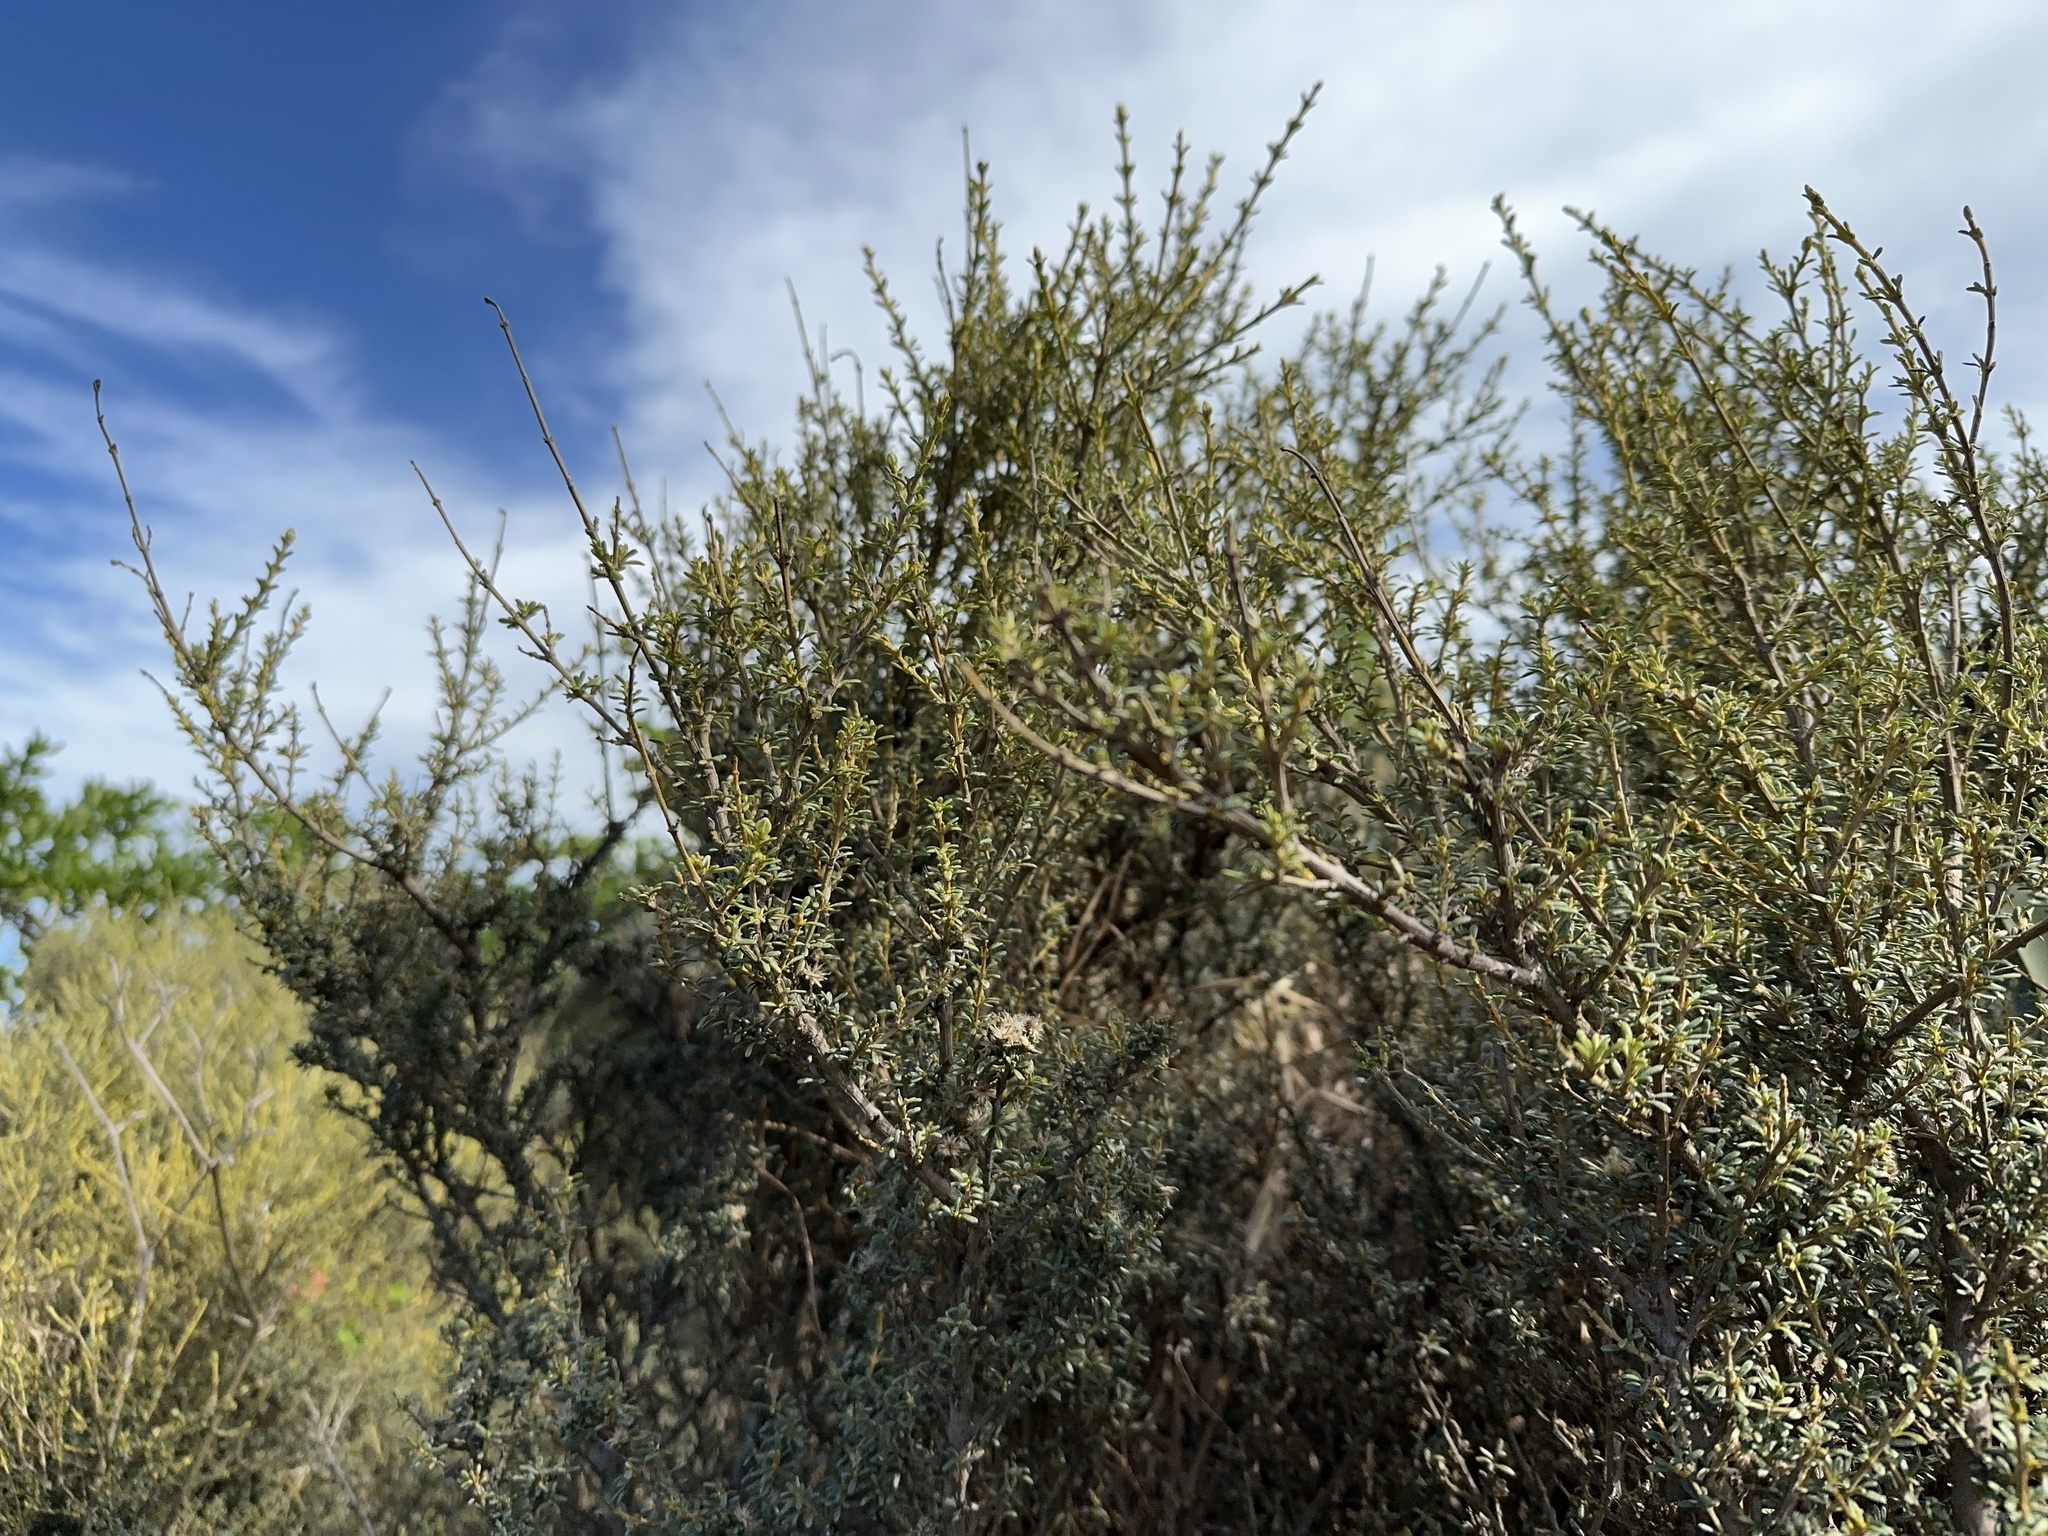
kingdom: Plantae
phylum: Tracheophyta
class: Magnoliopsida
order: Asterales
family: Asteraceae
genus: Olearia
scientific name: Olearia solandri
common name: Coastal daisybush
